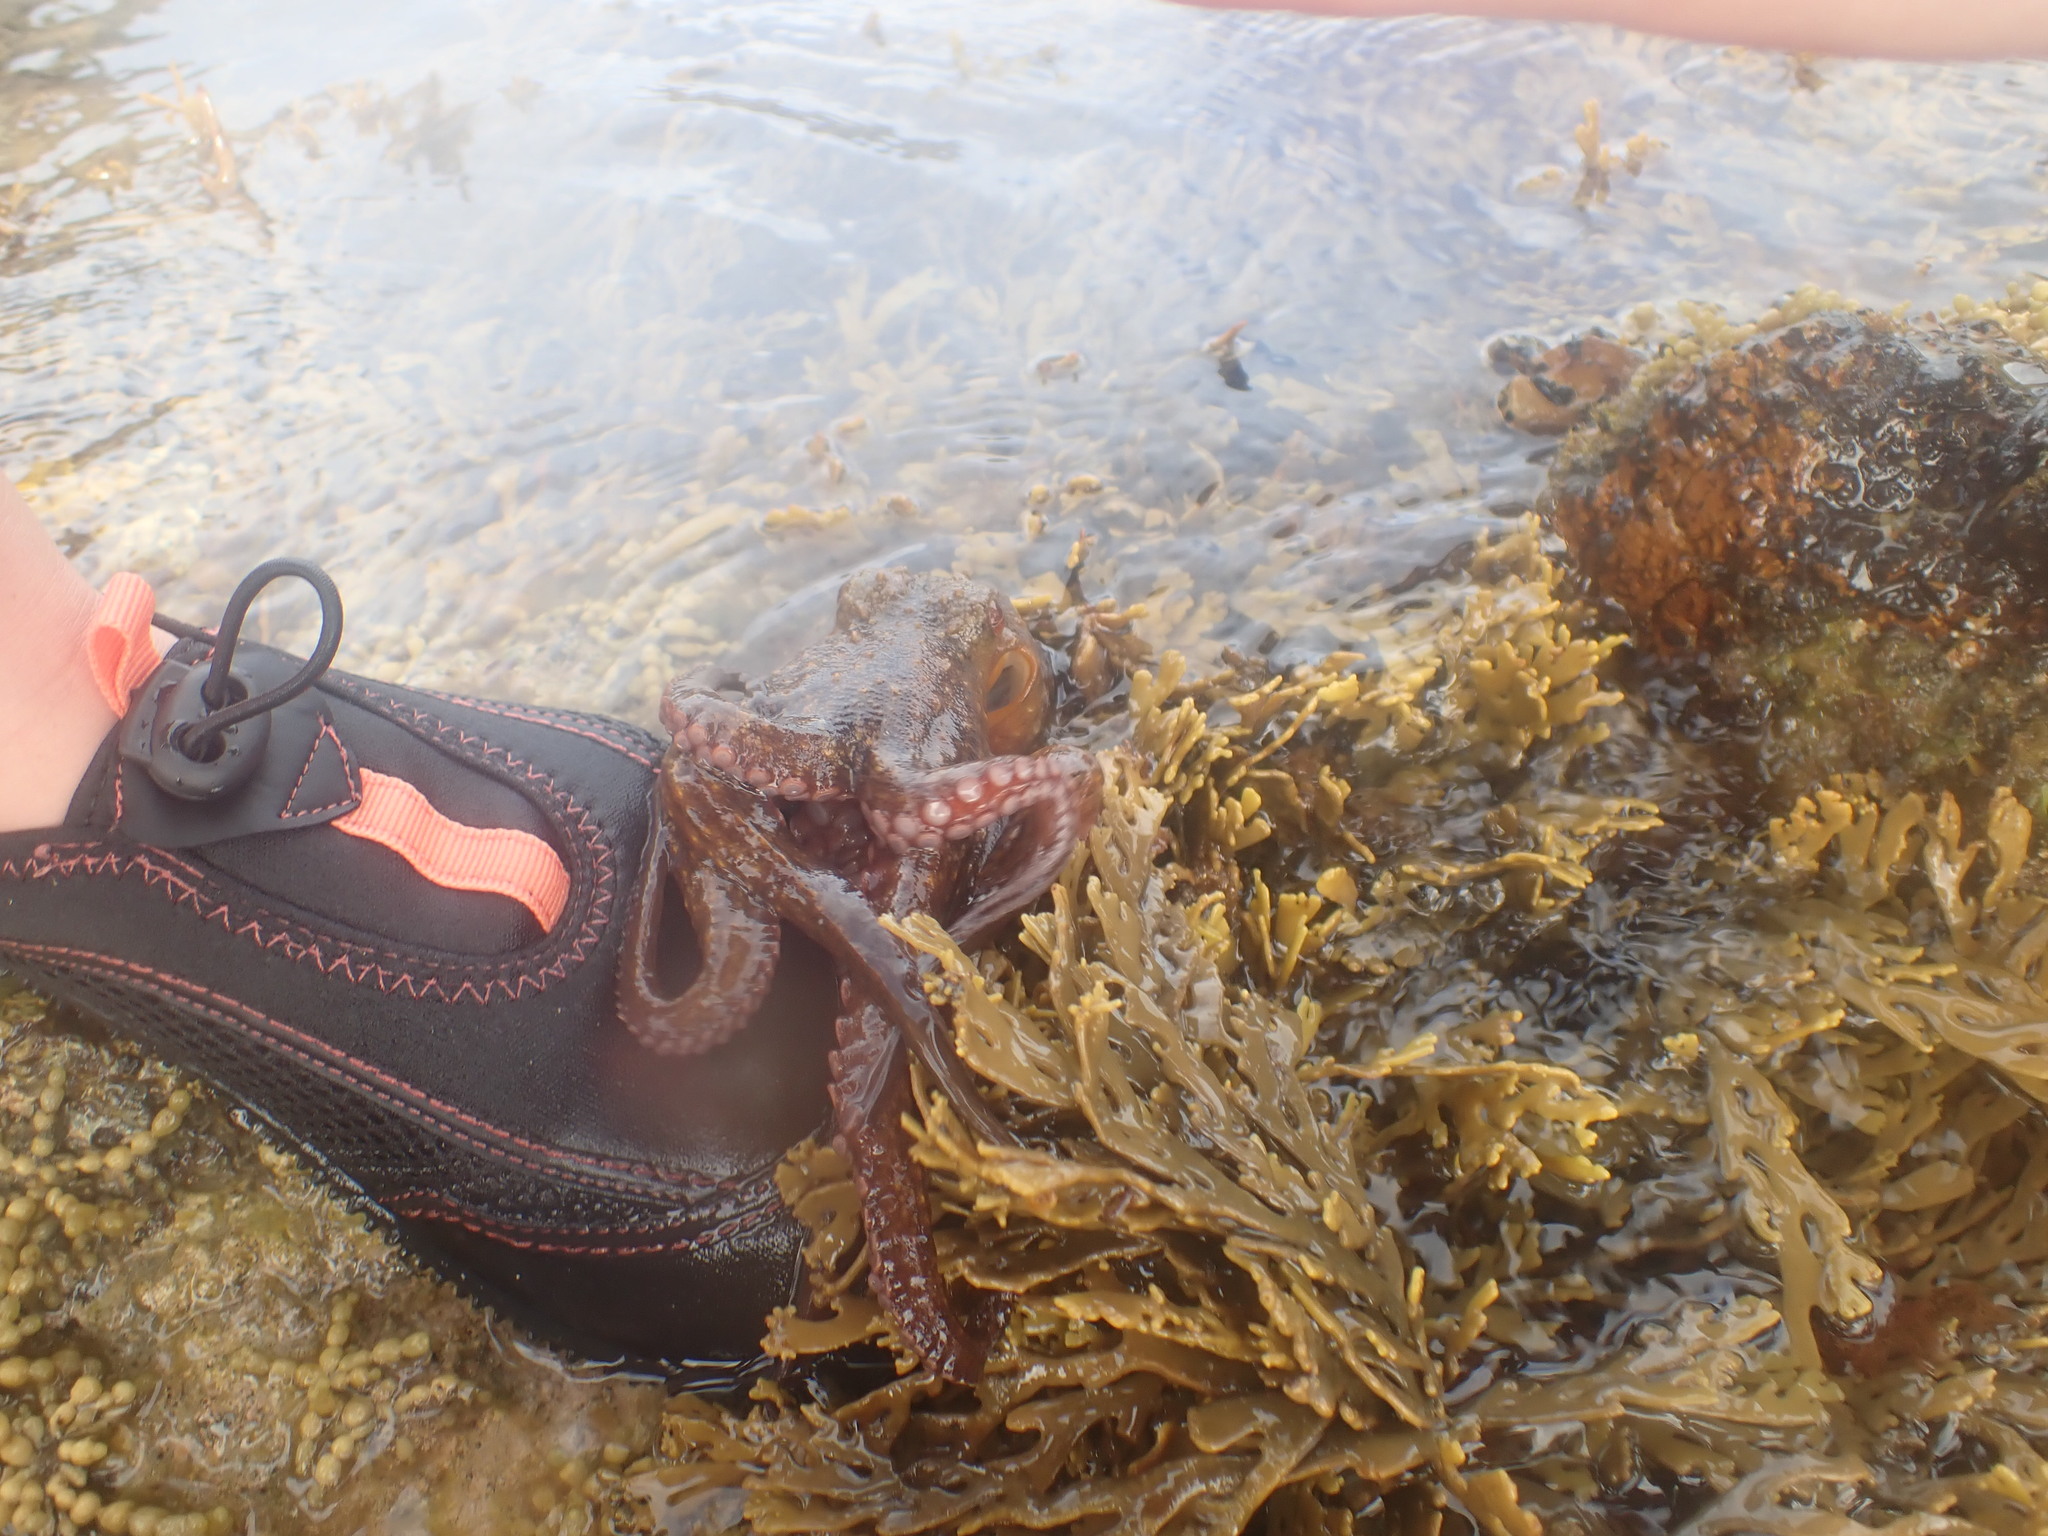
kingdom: Animalia
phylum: Mollusca
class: Cephalopoda
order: Octopoda
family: Octopodidae
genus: Octopus
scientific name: Octopus tetricus
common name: Sydney octopus
